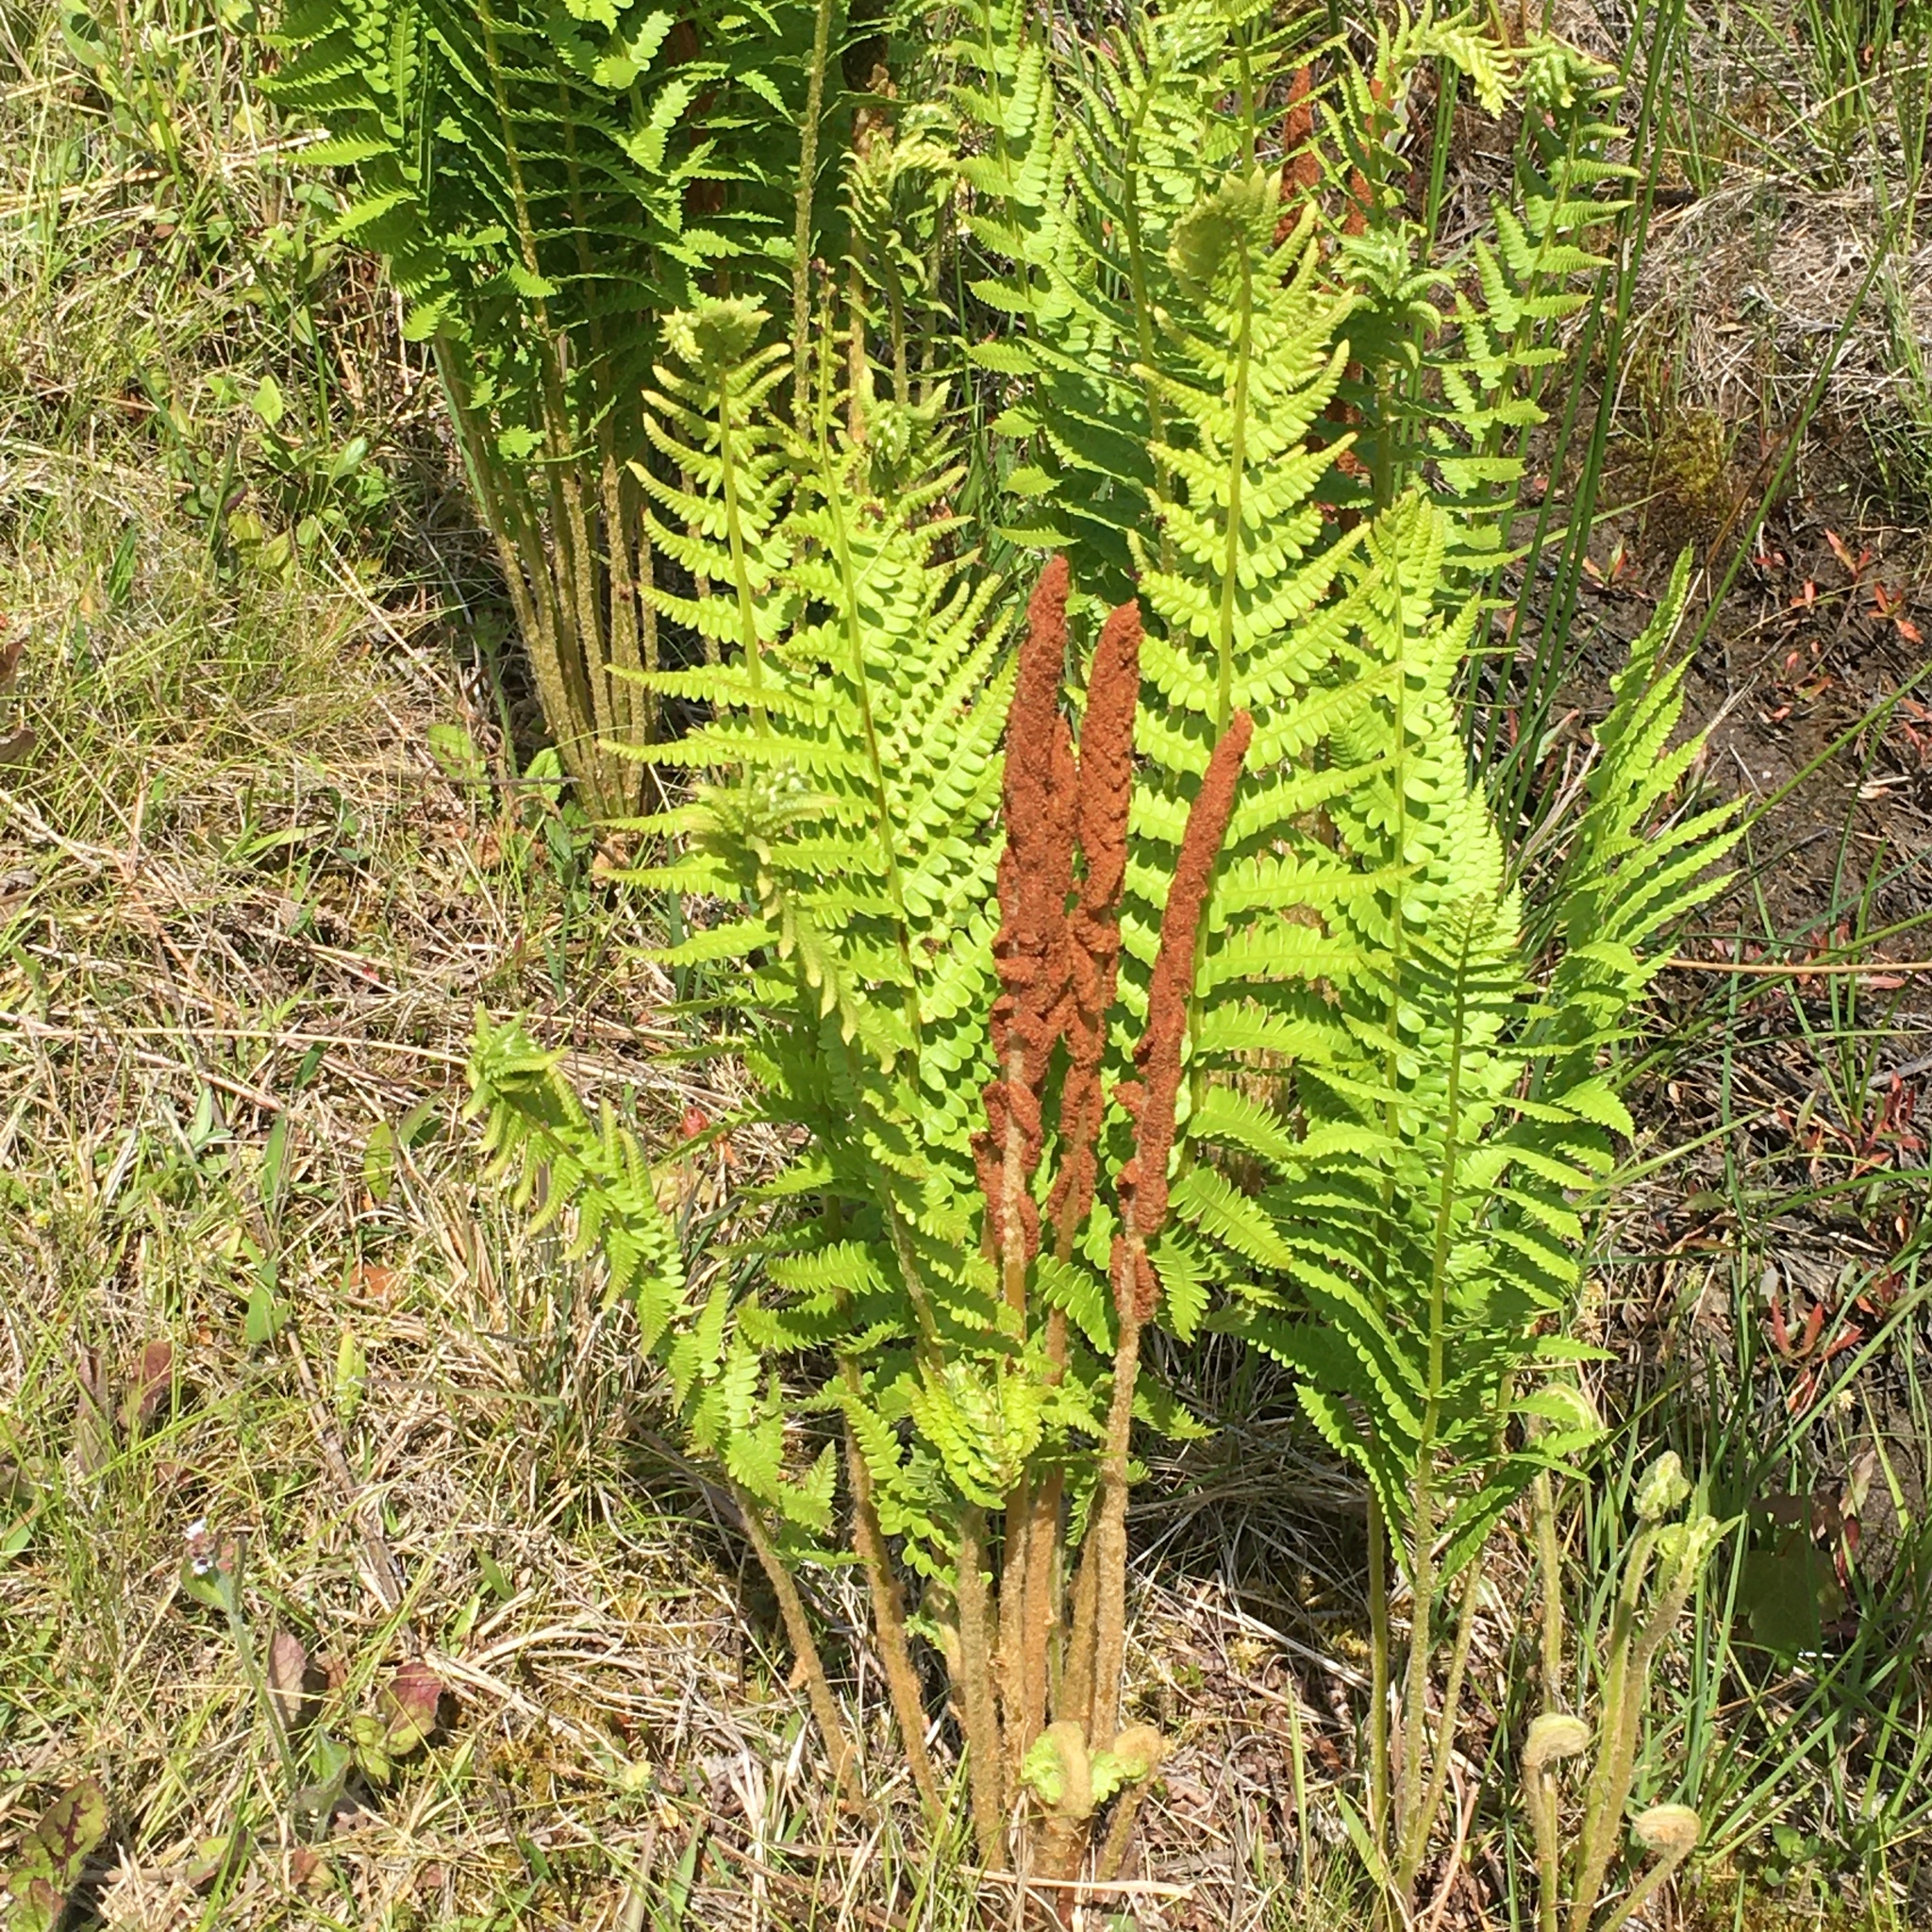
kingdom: Plantae
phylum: Tracheophyta
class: Polypodiopsida
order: Osmundales
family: Osmundaceae
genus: Osmundastrum
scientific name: Osmundastrum cinnamomeum
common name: Cinnamon fern
